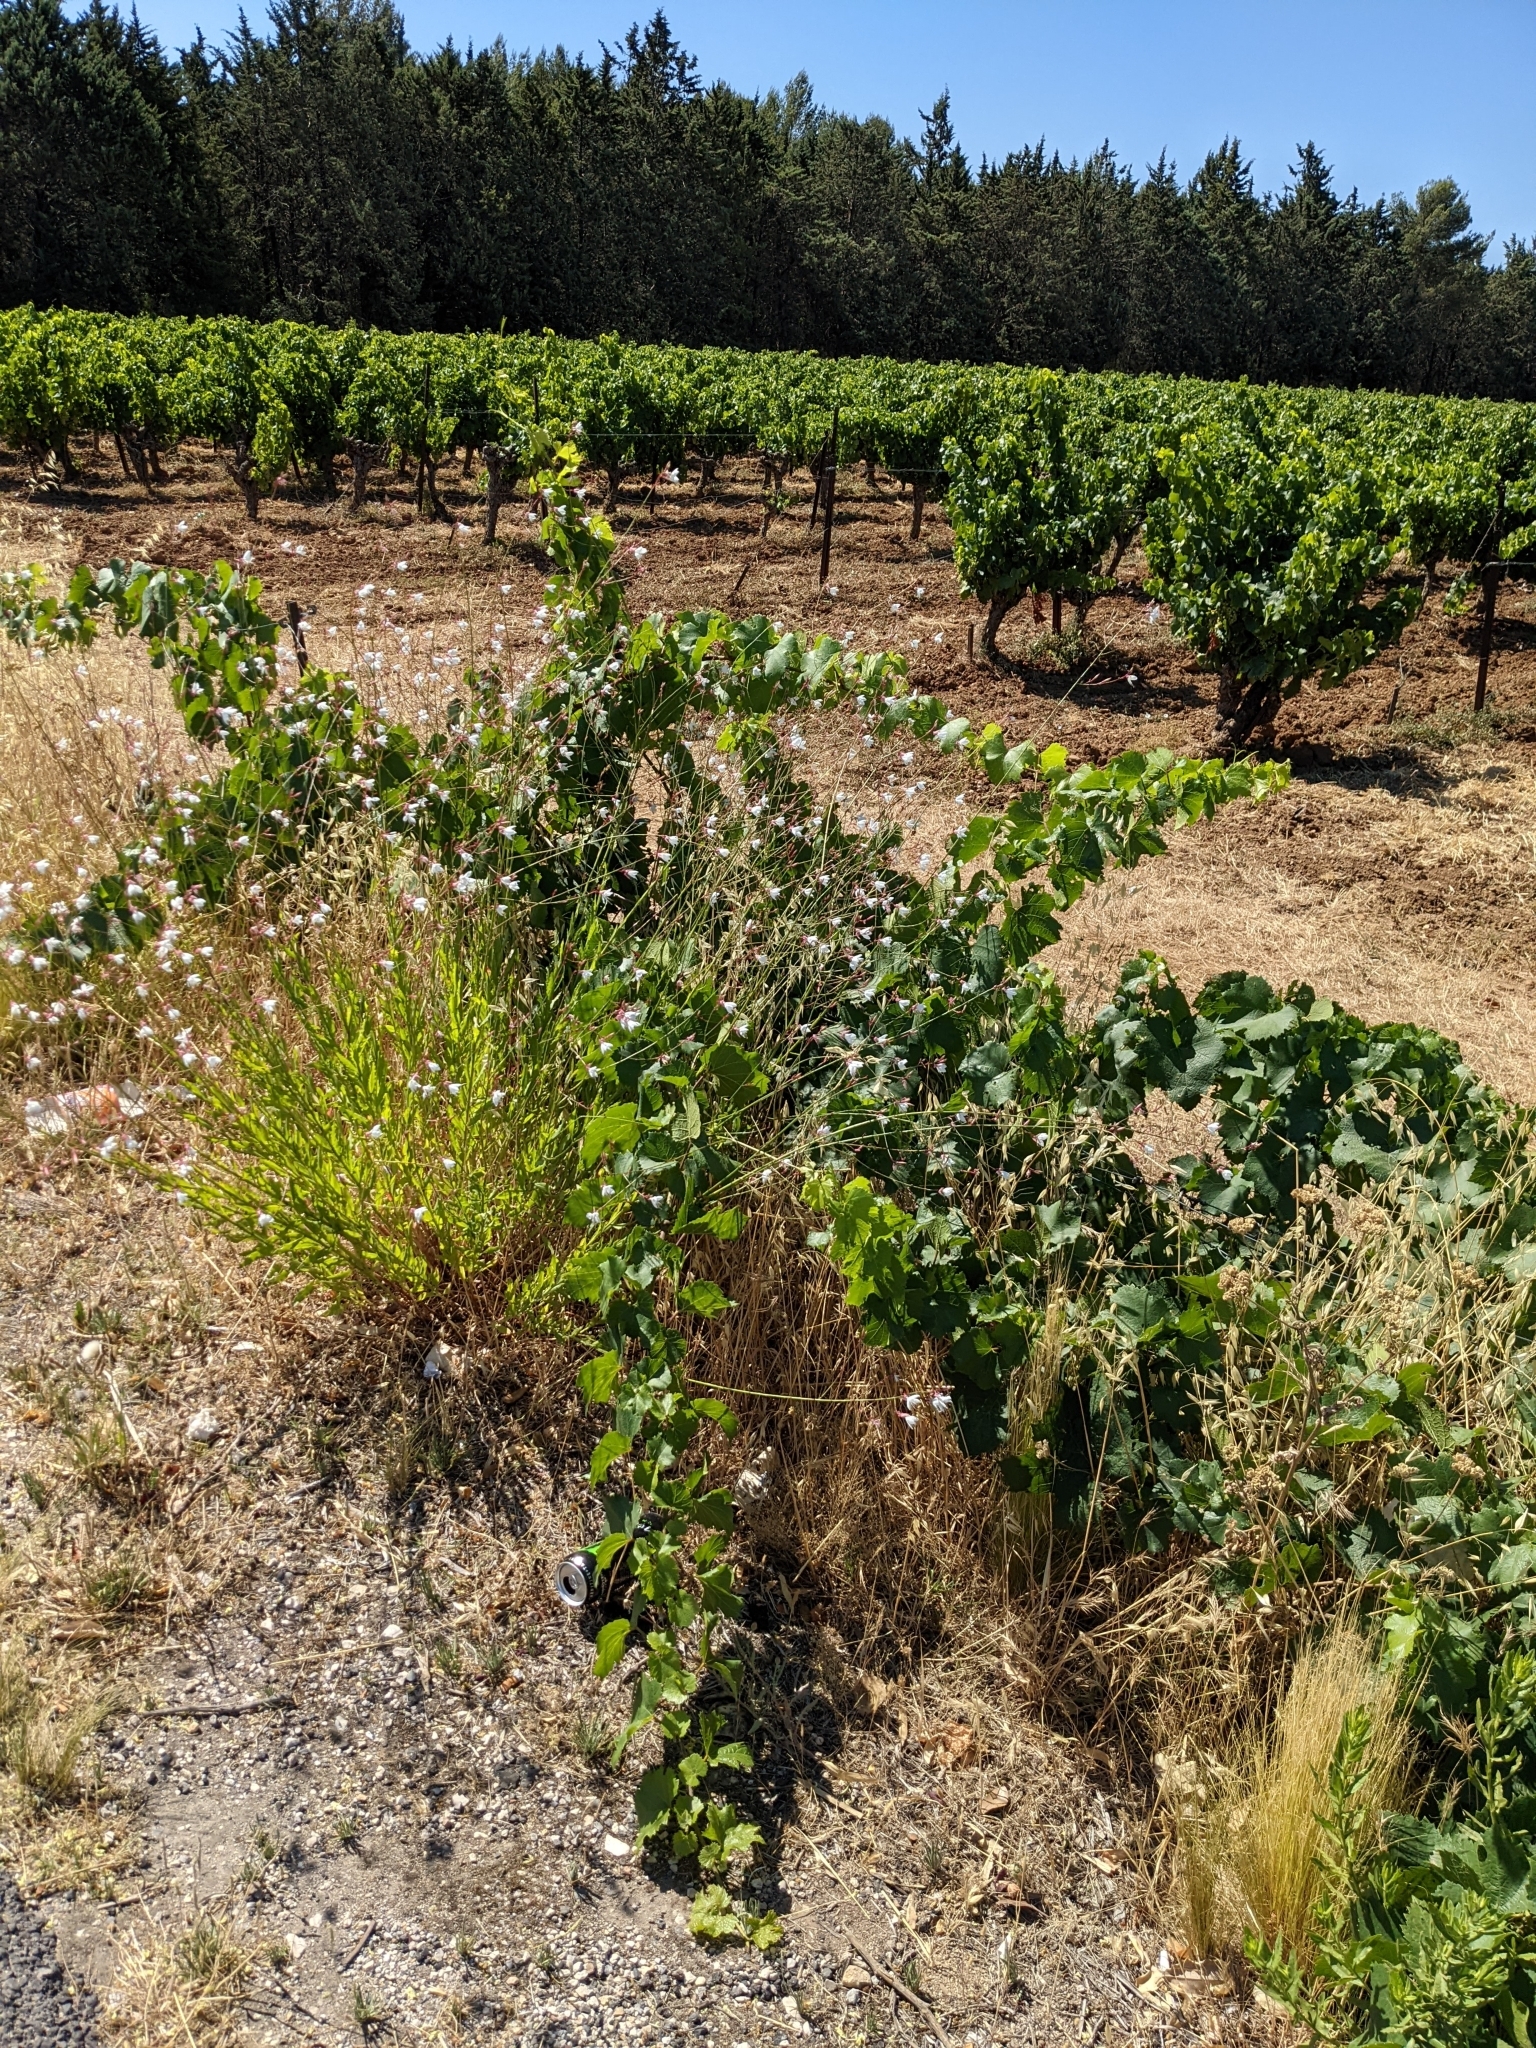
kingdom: Plantae
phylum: Tracheophyta
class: Magnoliopsida
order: Myrtales
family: Onagraceae
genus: Oenothera
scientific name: Oenothera lindheimeri
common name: Lindheimer's beeblossom
